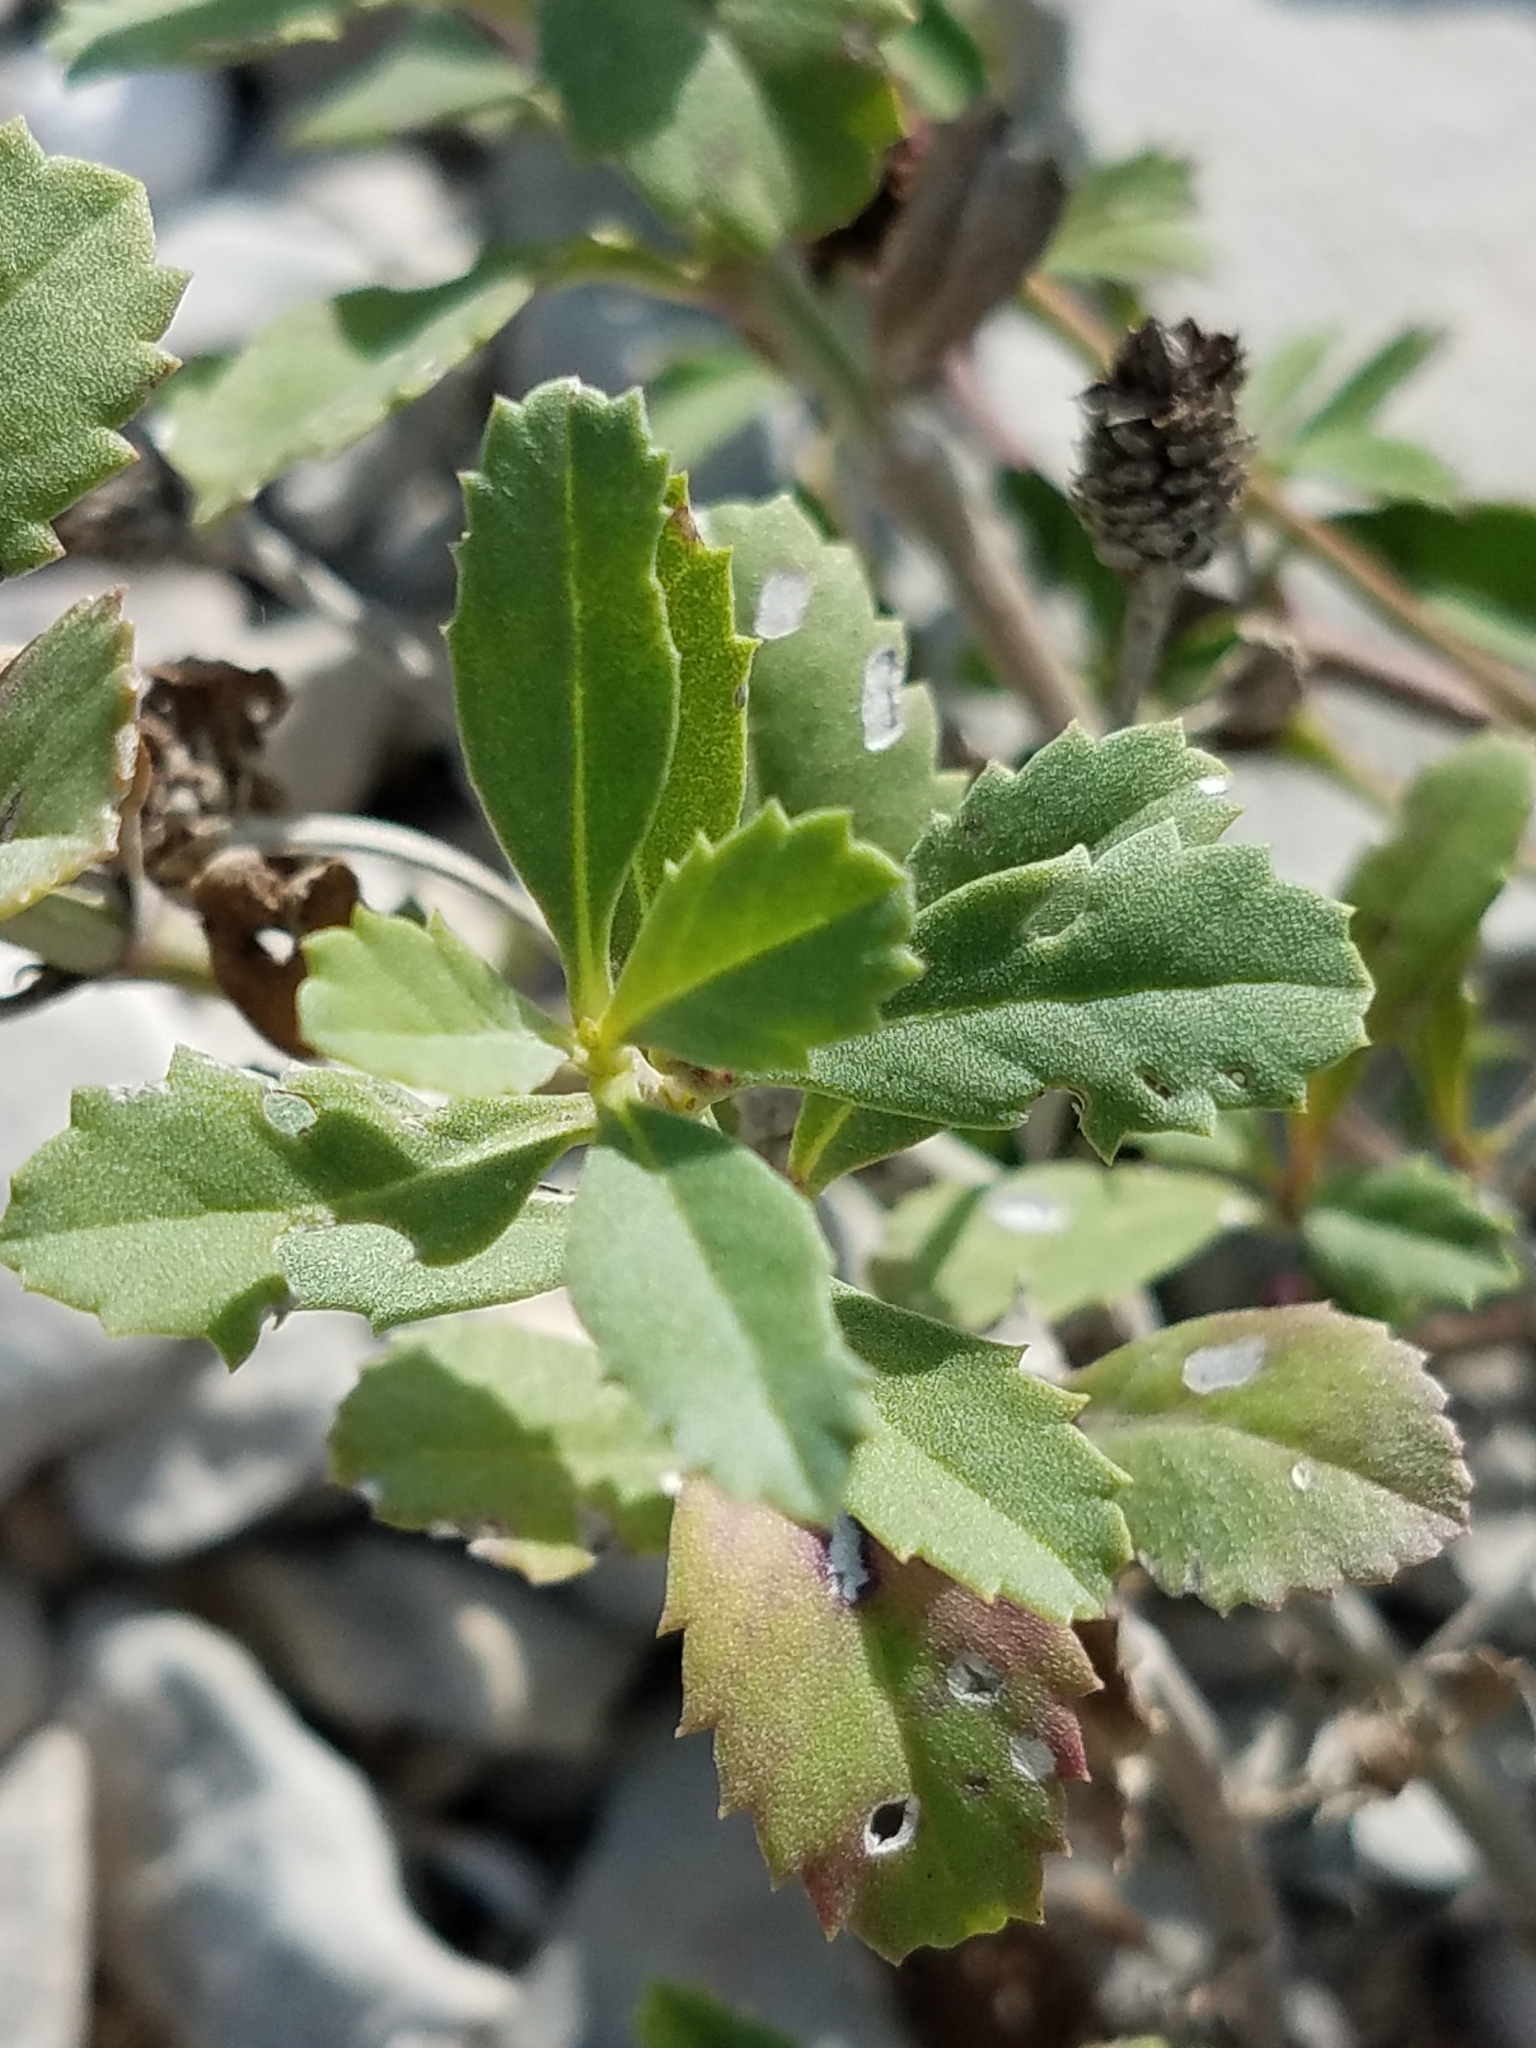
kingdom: Plantae
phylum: Tracheophyta
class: Magnoliopsida
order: Lamiales
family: Verbenaceae
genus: Phyla
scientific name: Phyla nodiflora
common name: Frogfruit
